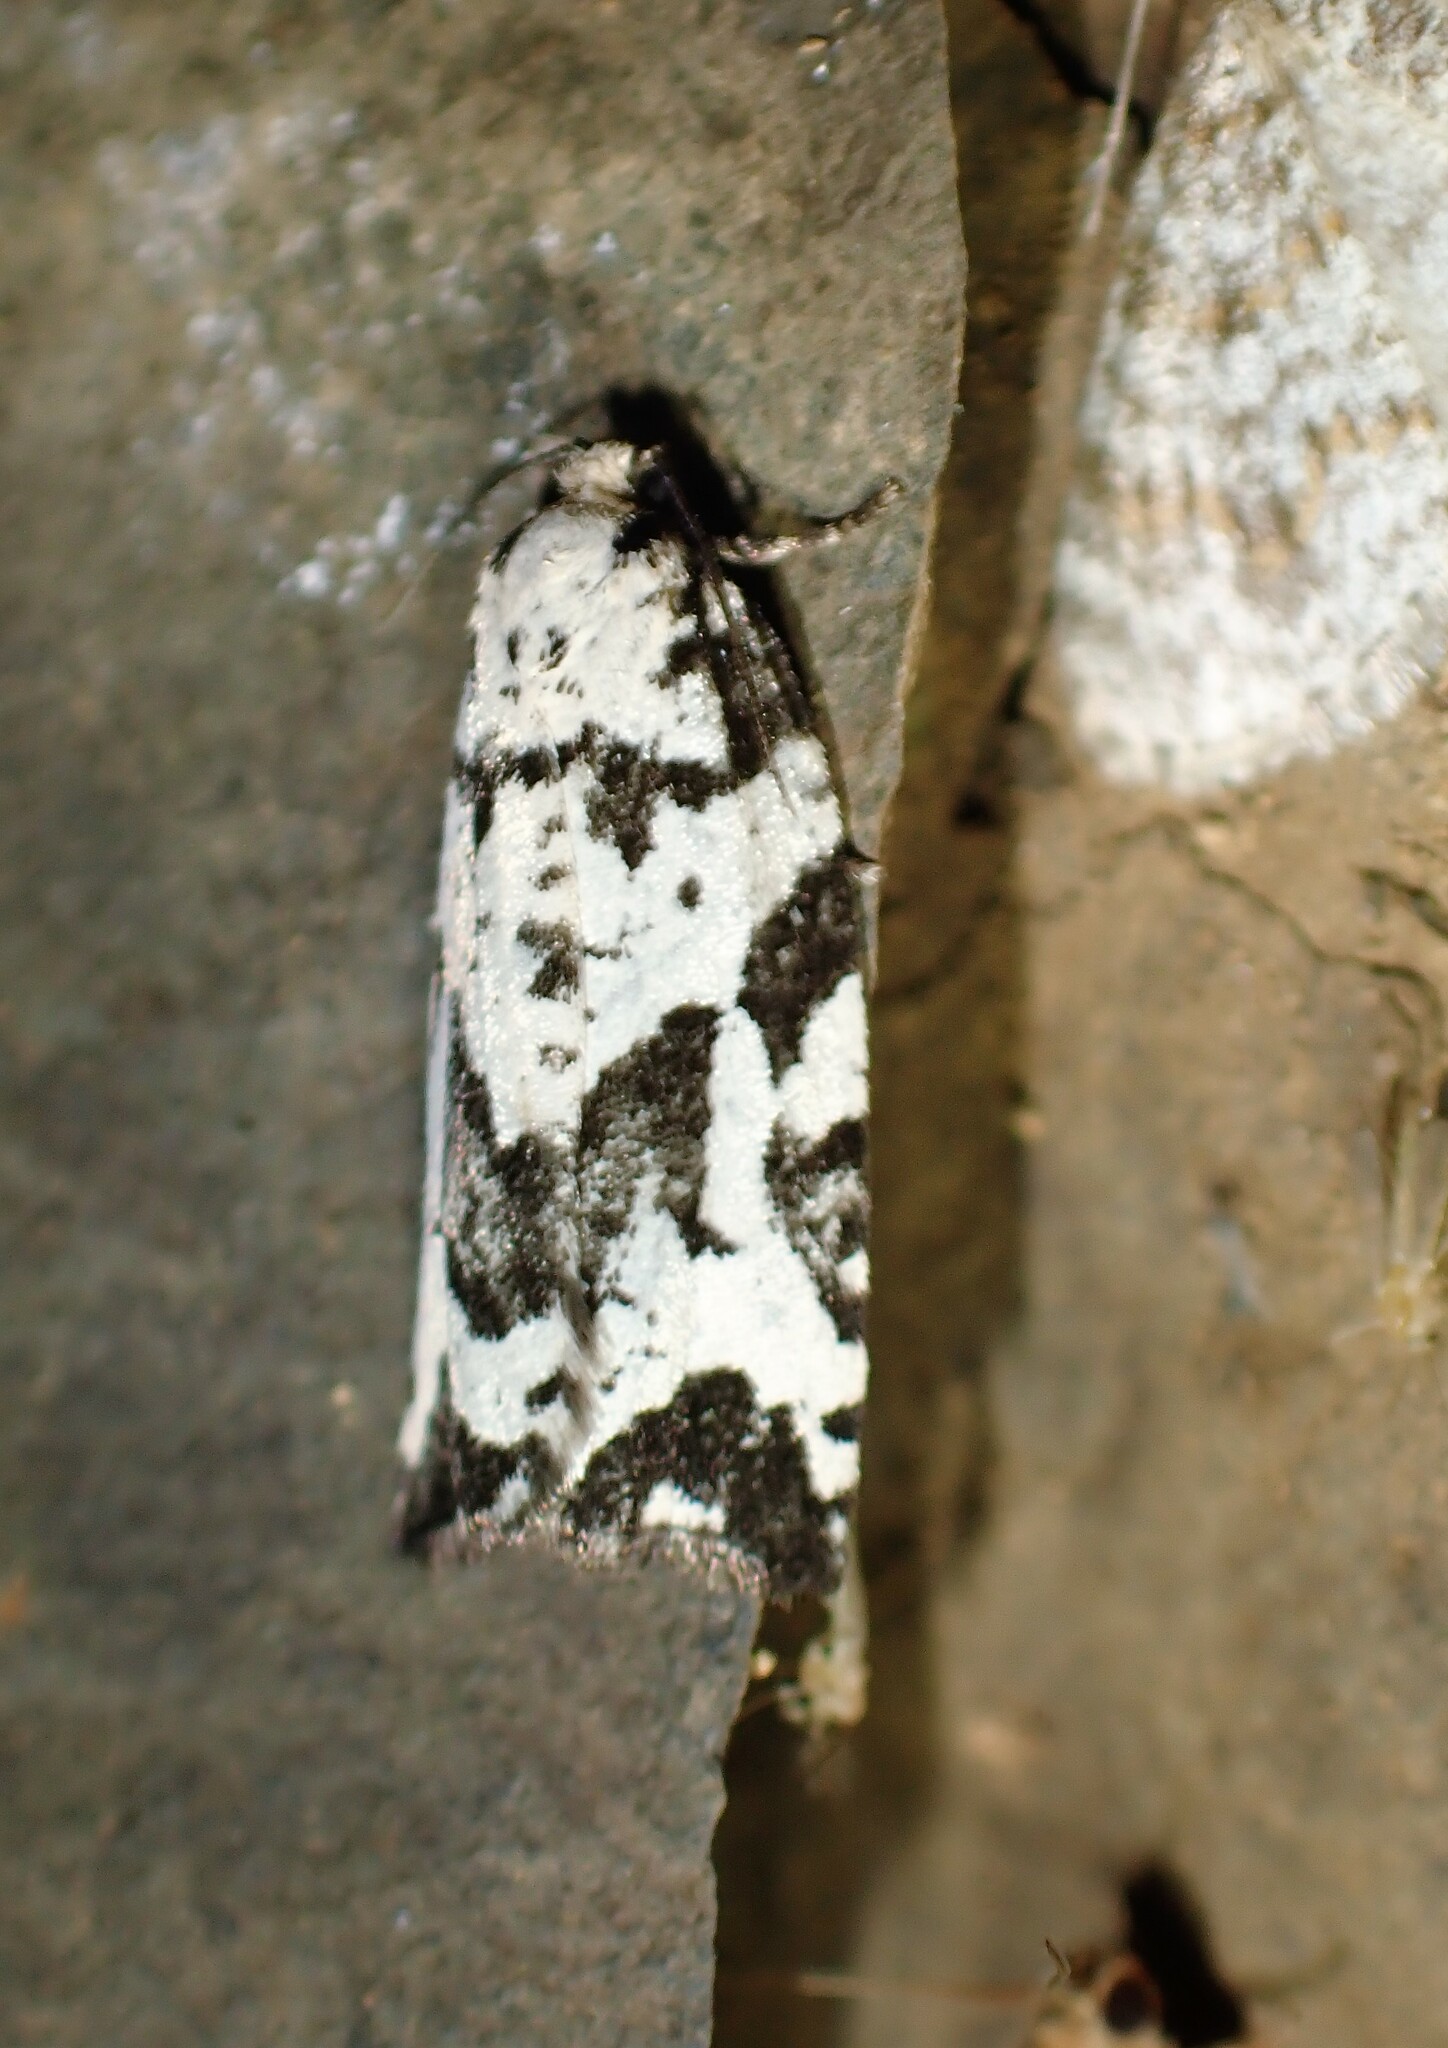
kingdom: Animalia
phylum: Arthropoda
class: Insecta
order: Lepidoptera
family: Tortricidae
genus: Archips
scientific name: Archips dissitana
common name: Boldly-marked archips moth
